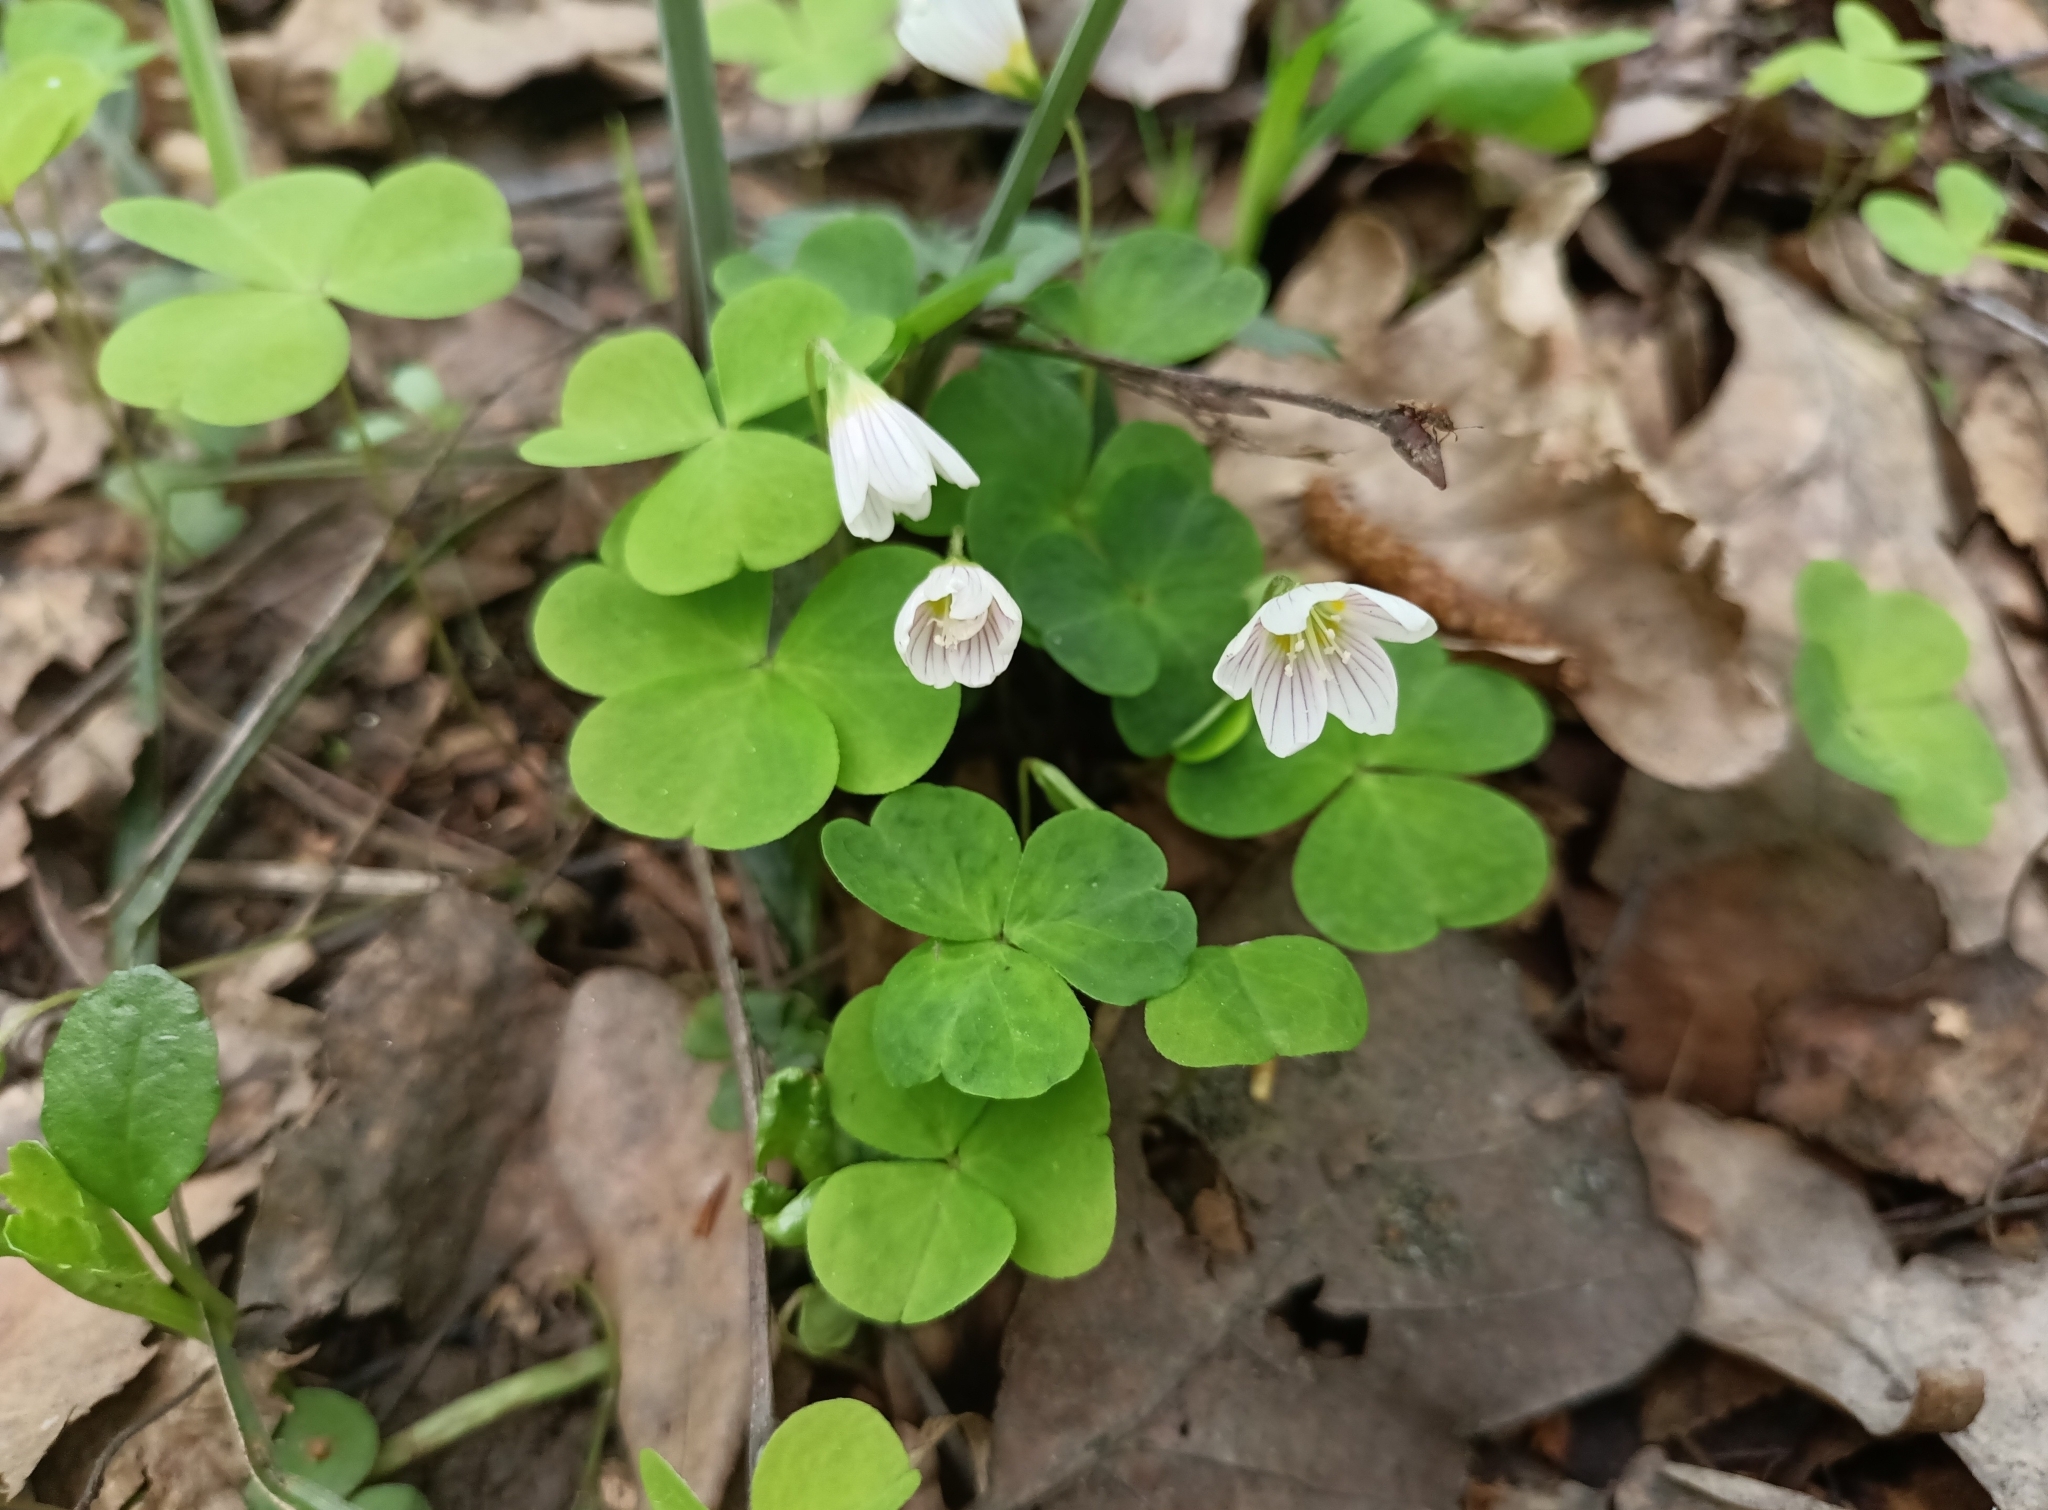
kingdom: Plantae
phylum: Tracheophyta
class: Magnoliopsida
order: Oxalidales
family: Oxalidaceae
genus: Oxalis
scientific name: Oxalis acetosella
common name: Wood-sorrel
